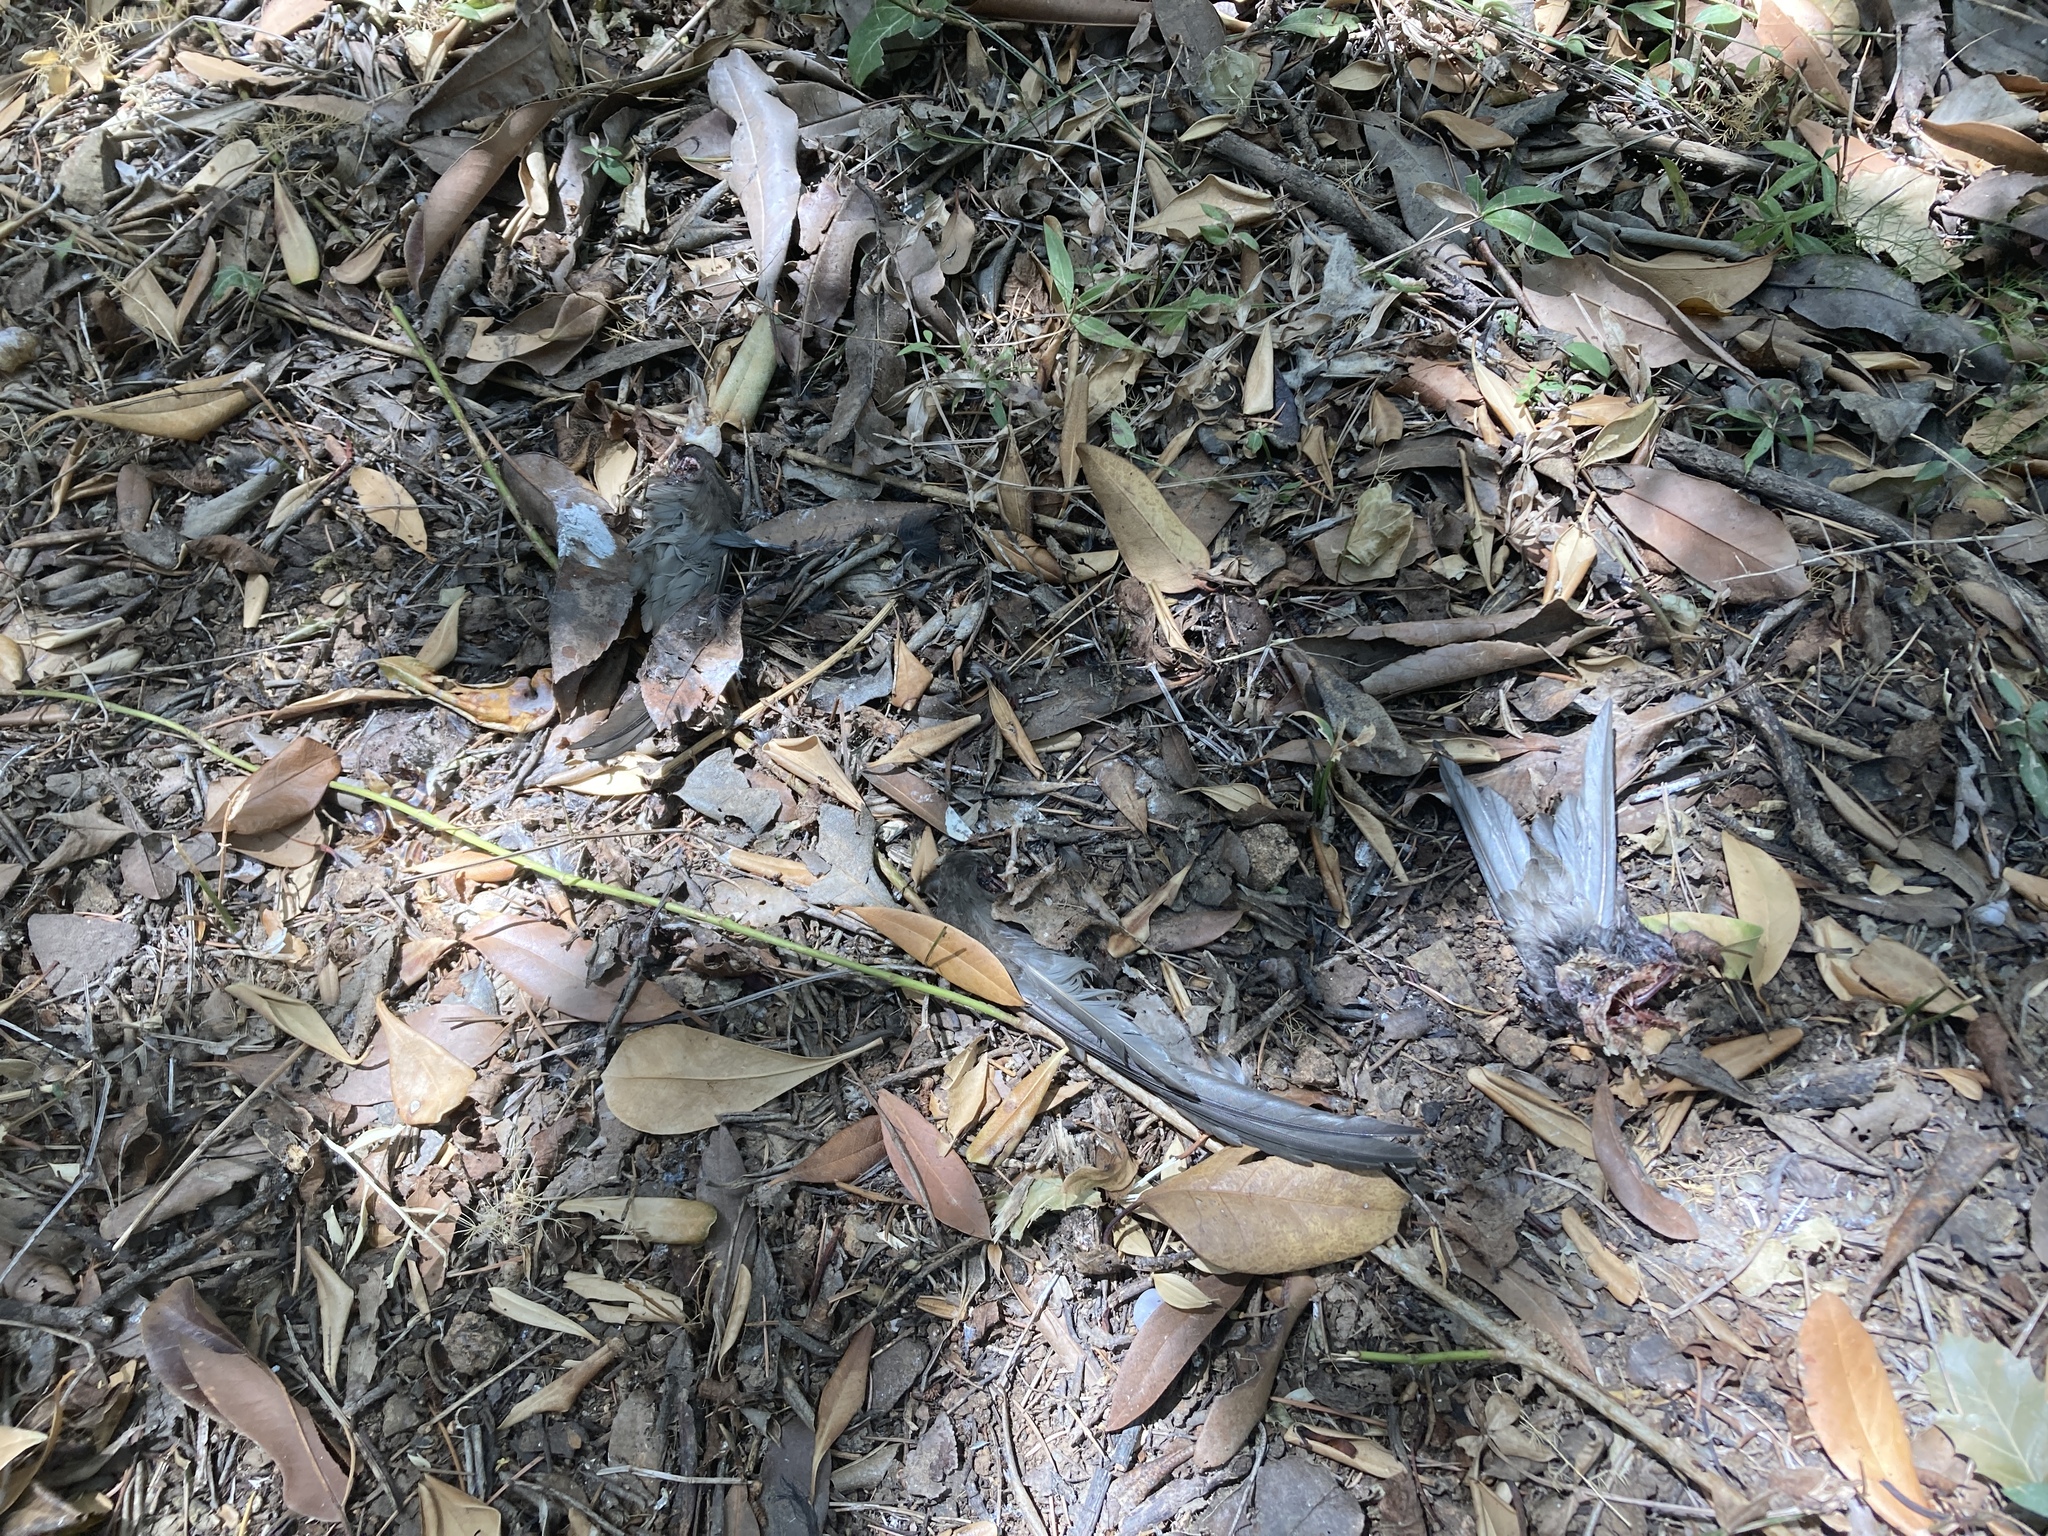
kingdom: Animalia
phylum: Chordata
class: Aves
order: Apodiformes
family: Apodidae
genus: Apus
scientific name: Apus apus
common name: Common swift
